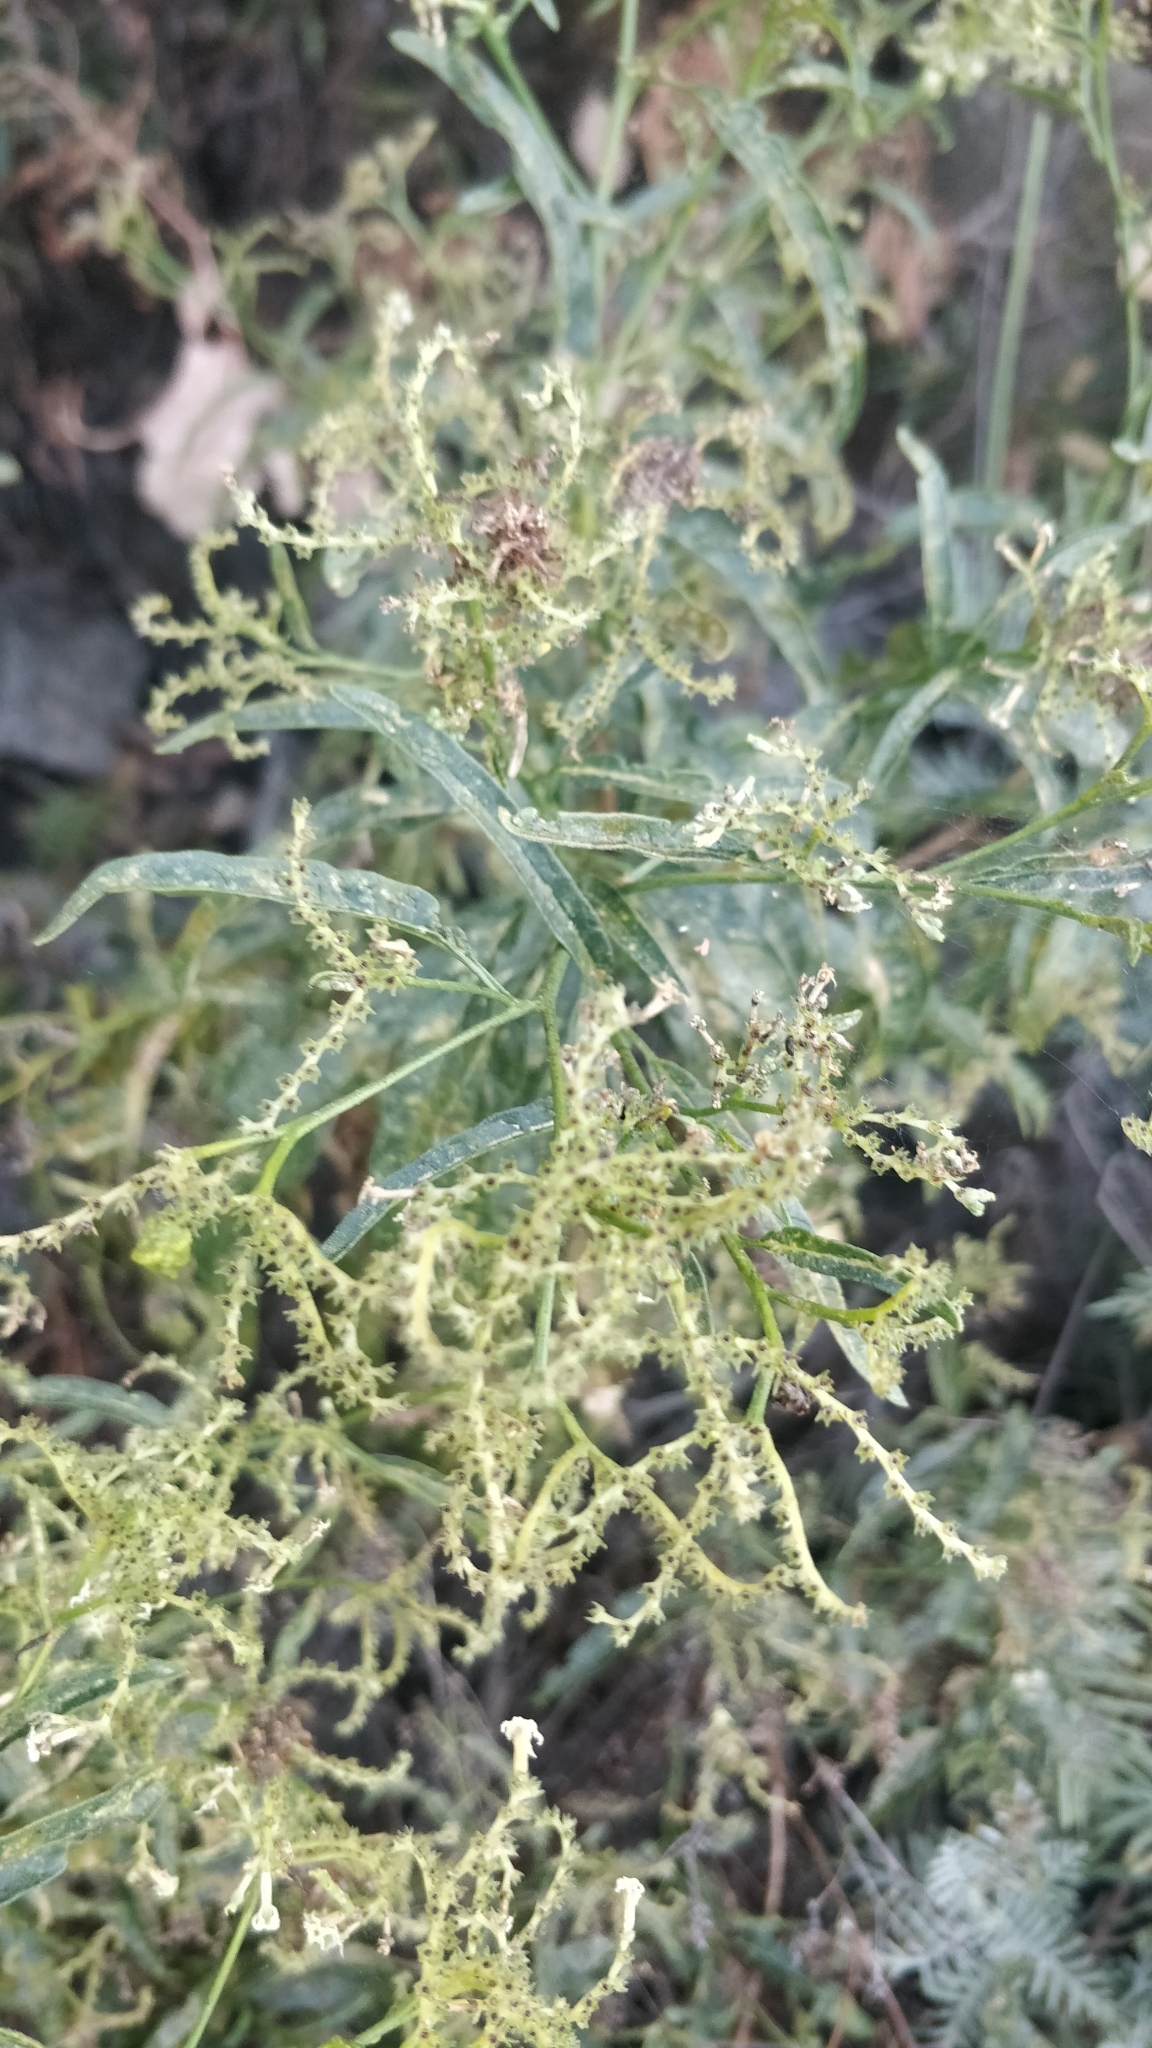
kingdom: Plantae
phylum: Tracheophyta
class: Magnoliopsida
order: Boraginales
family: Heliotropiaceae
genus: Heliotropium
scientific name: Heliotropium messerschmidioides
